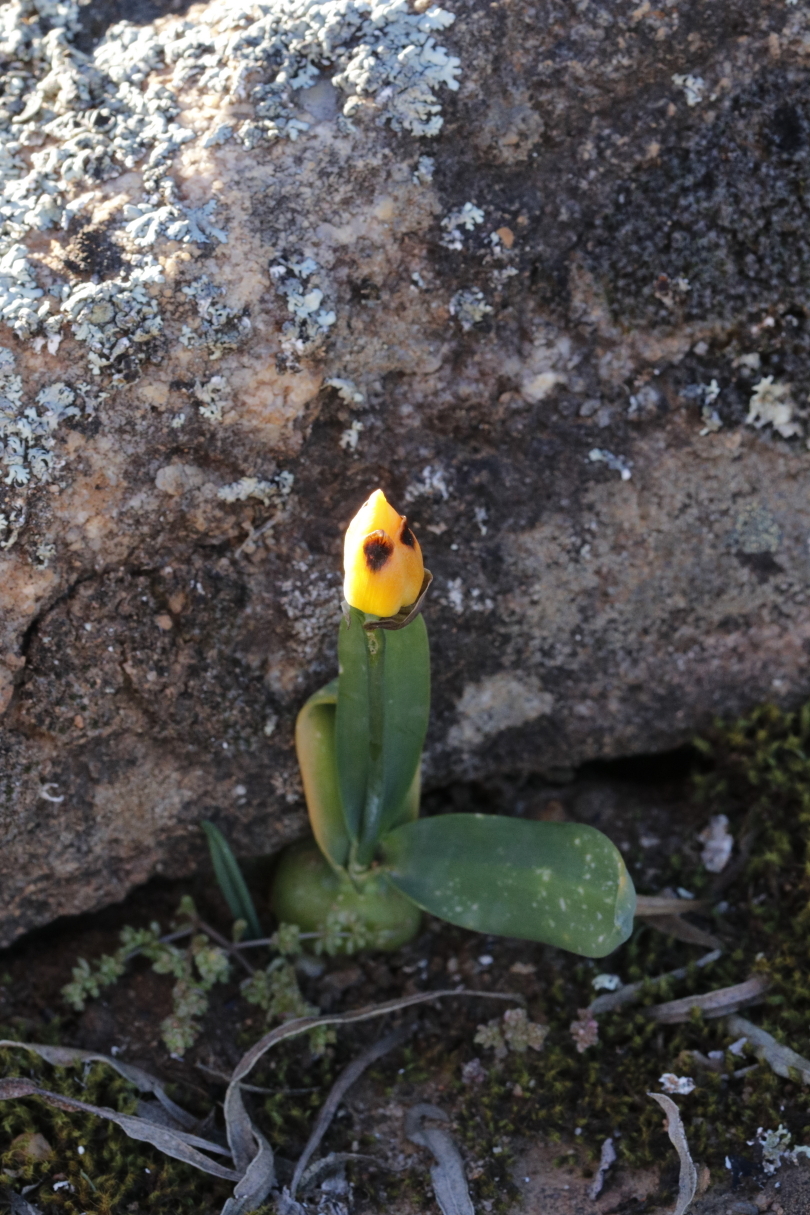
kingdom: Plantae
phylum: Tracheophyta
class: Liliopsida
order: Asparagales
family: Asparagaceae
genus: Ornithogalum
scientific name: Ornithogalum maculatum
